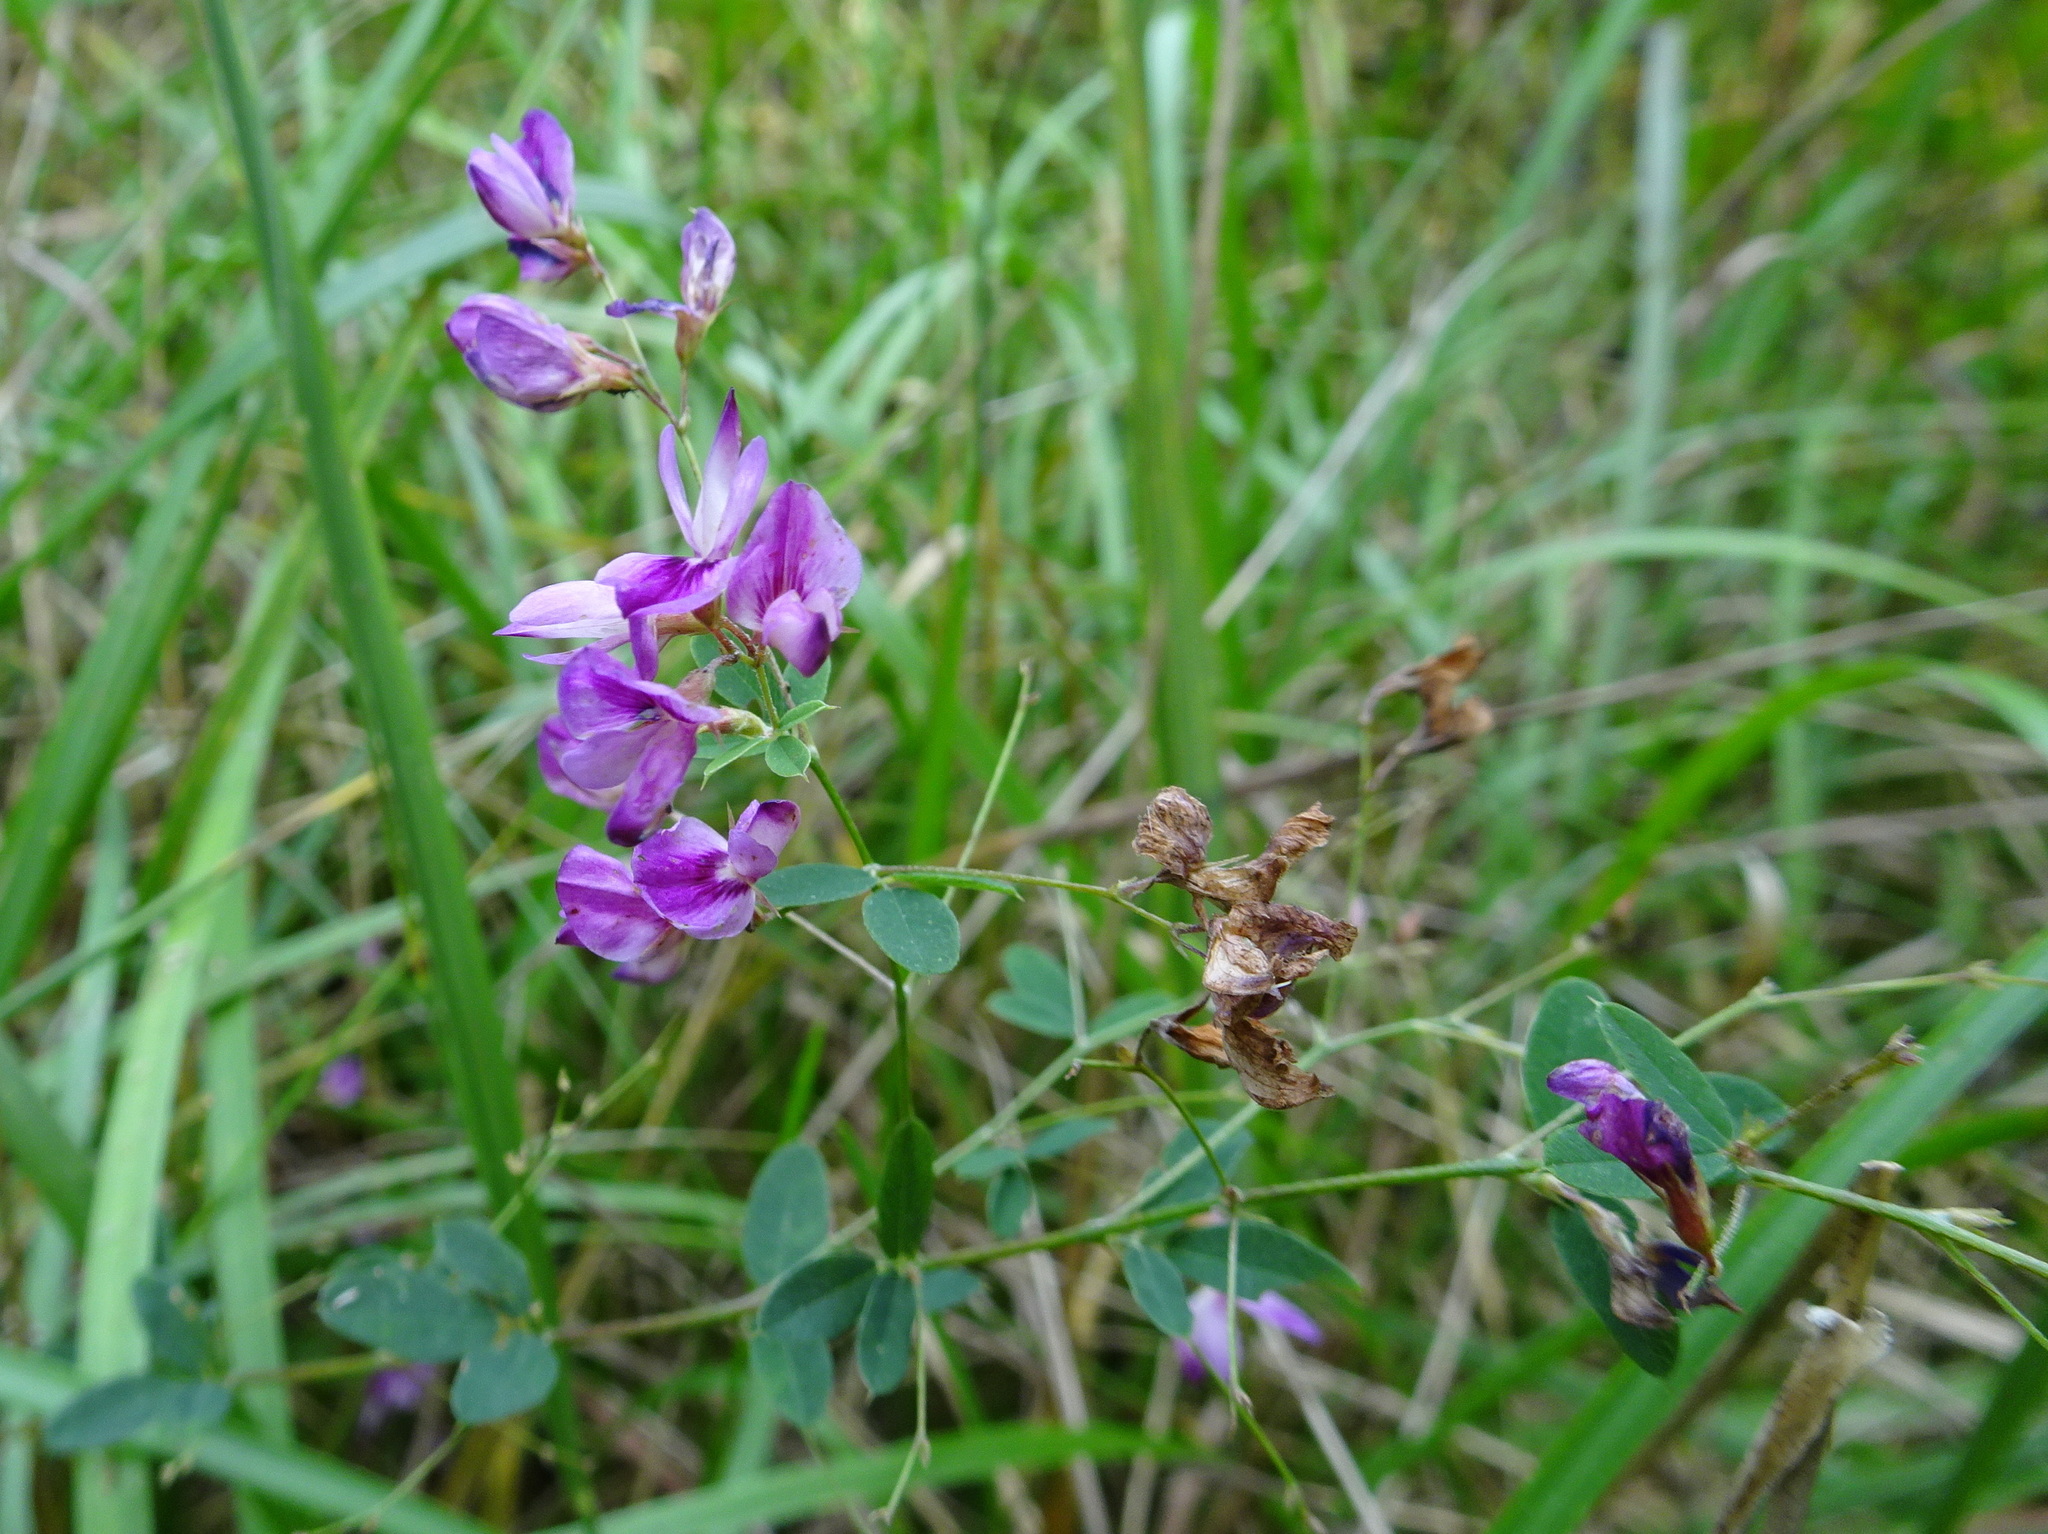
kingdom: Plantae
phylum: Tracheophyta
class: Magnoliopsida
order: Fabales
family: Fabaceae
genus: Lespedeza
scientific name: Lespedeza
